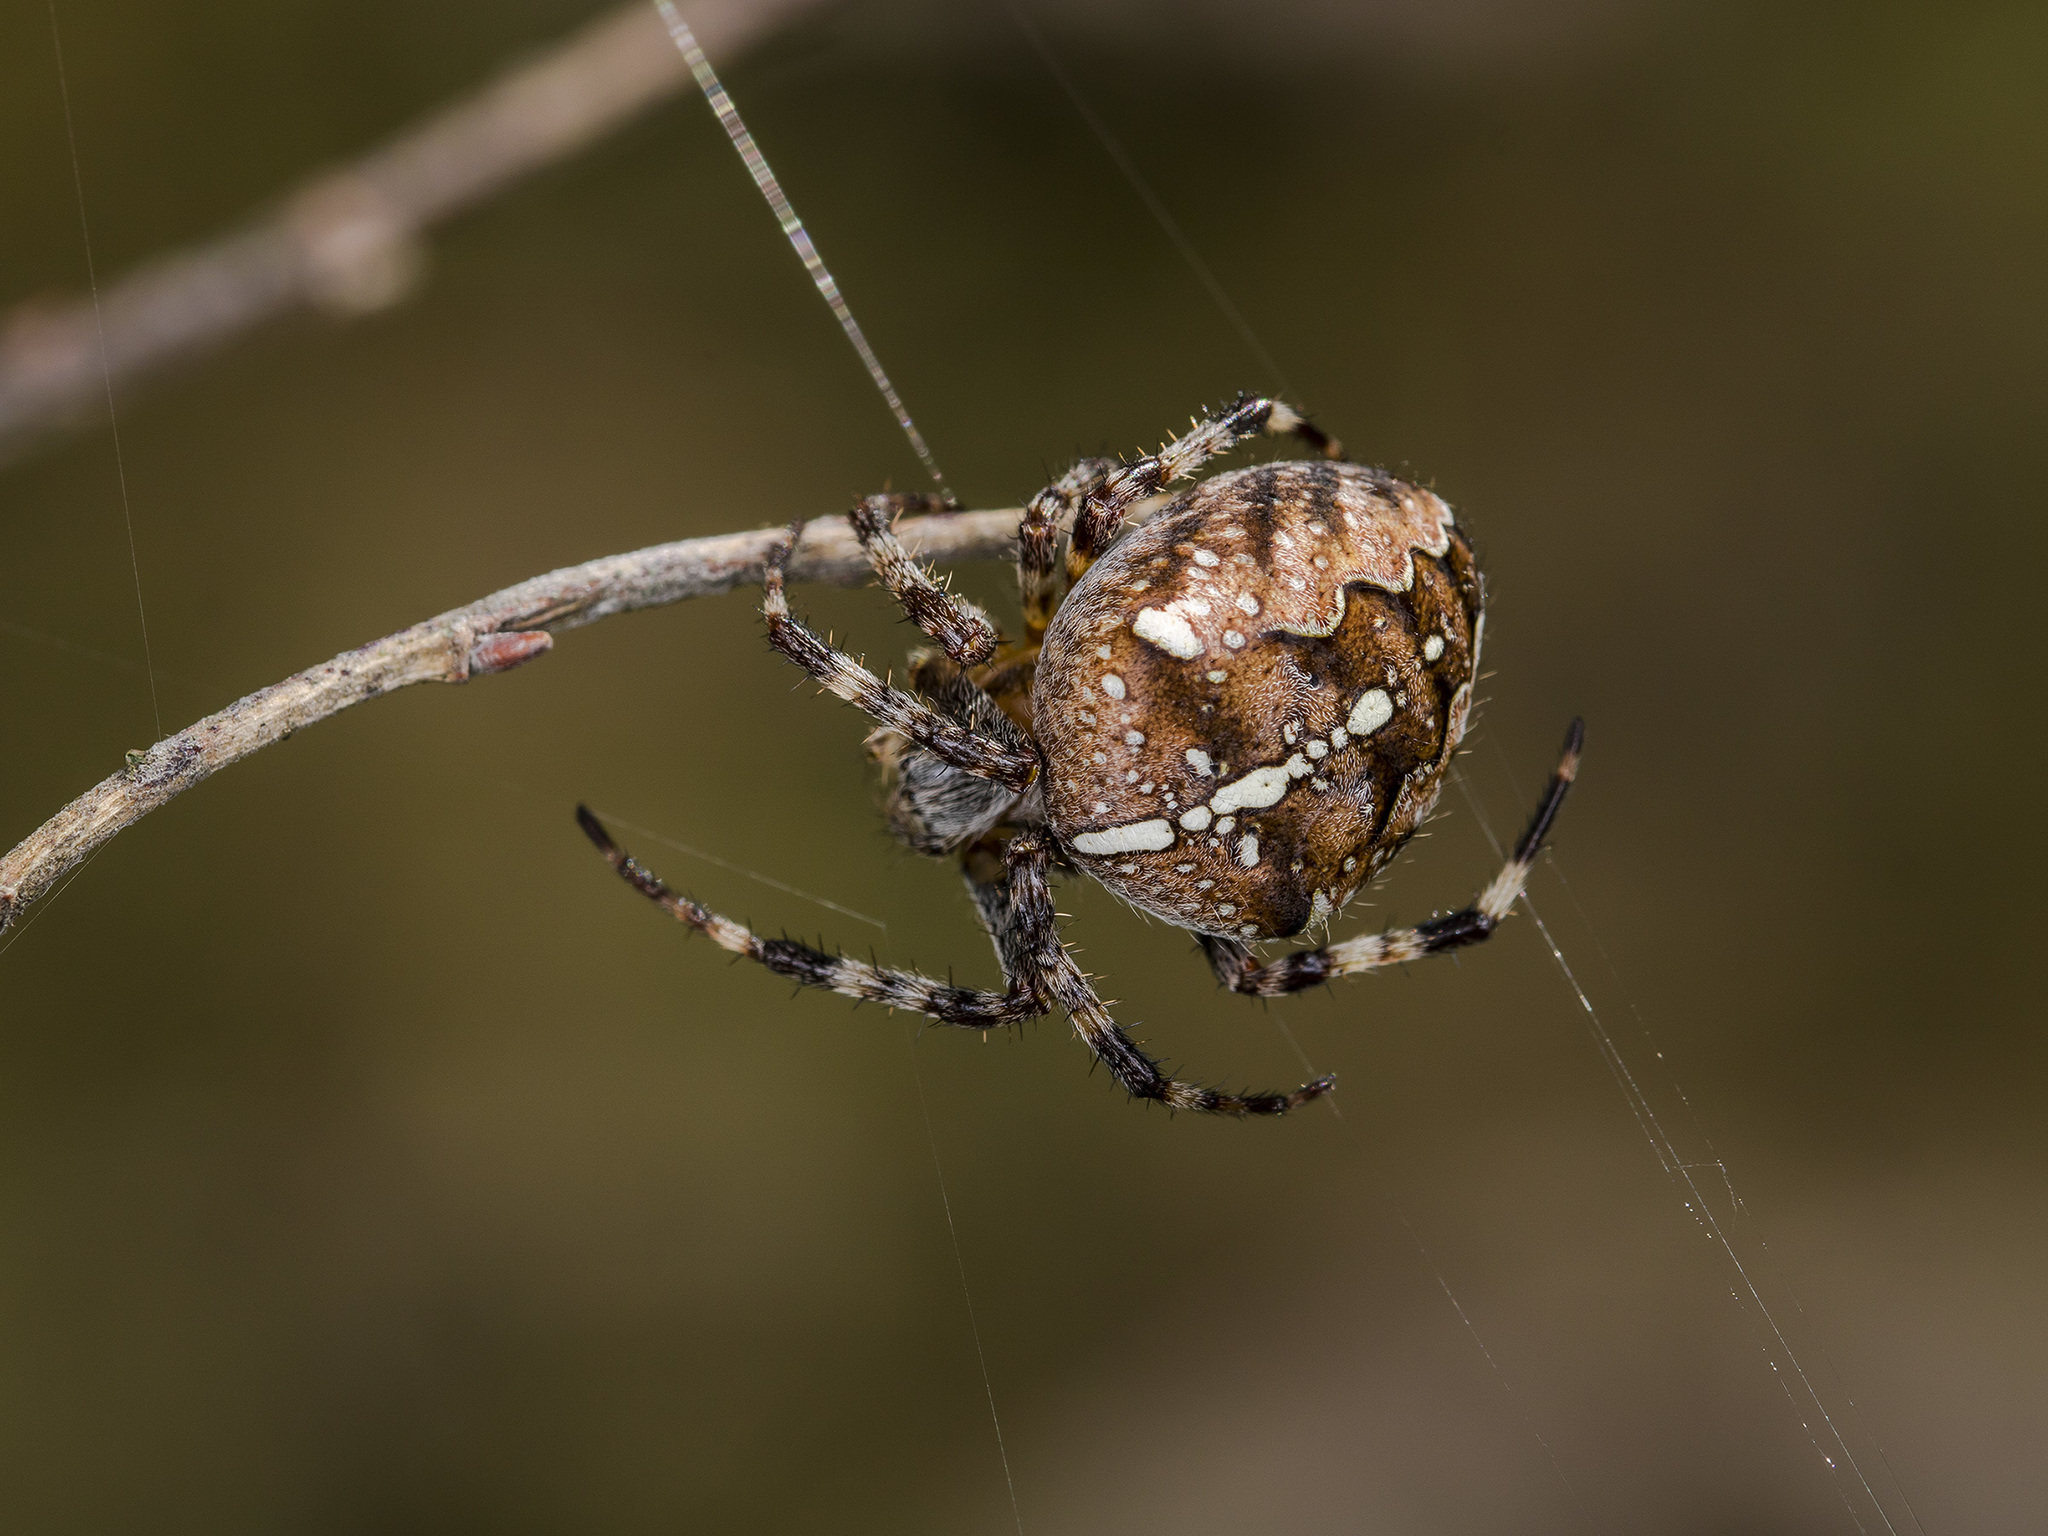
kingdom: Animalia
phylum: Arthropoda
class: Arachnida
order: Araneae
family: Araneidae
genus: Araneus
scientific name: Araneus diadematus
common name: Cross orbweaver
